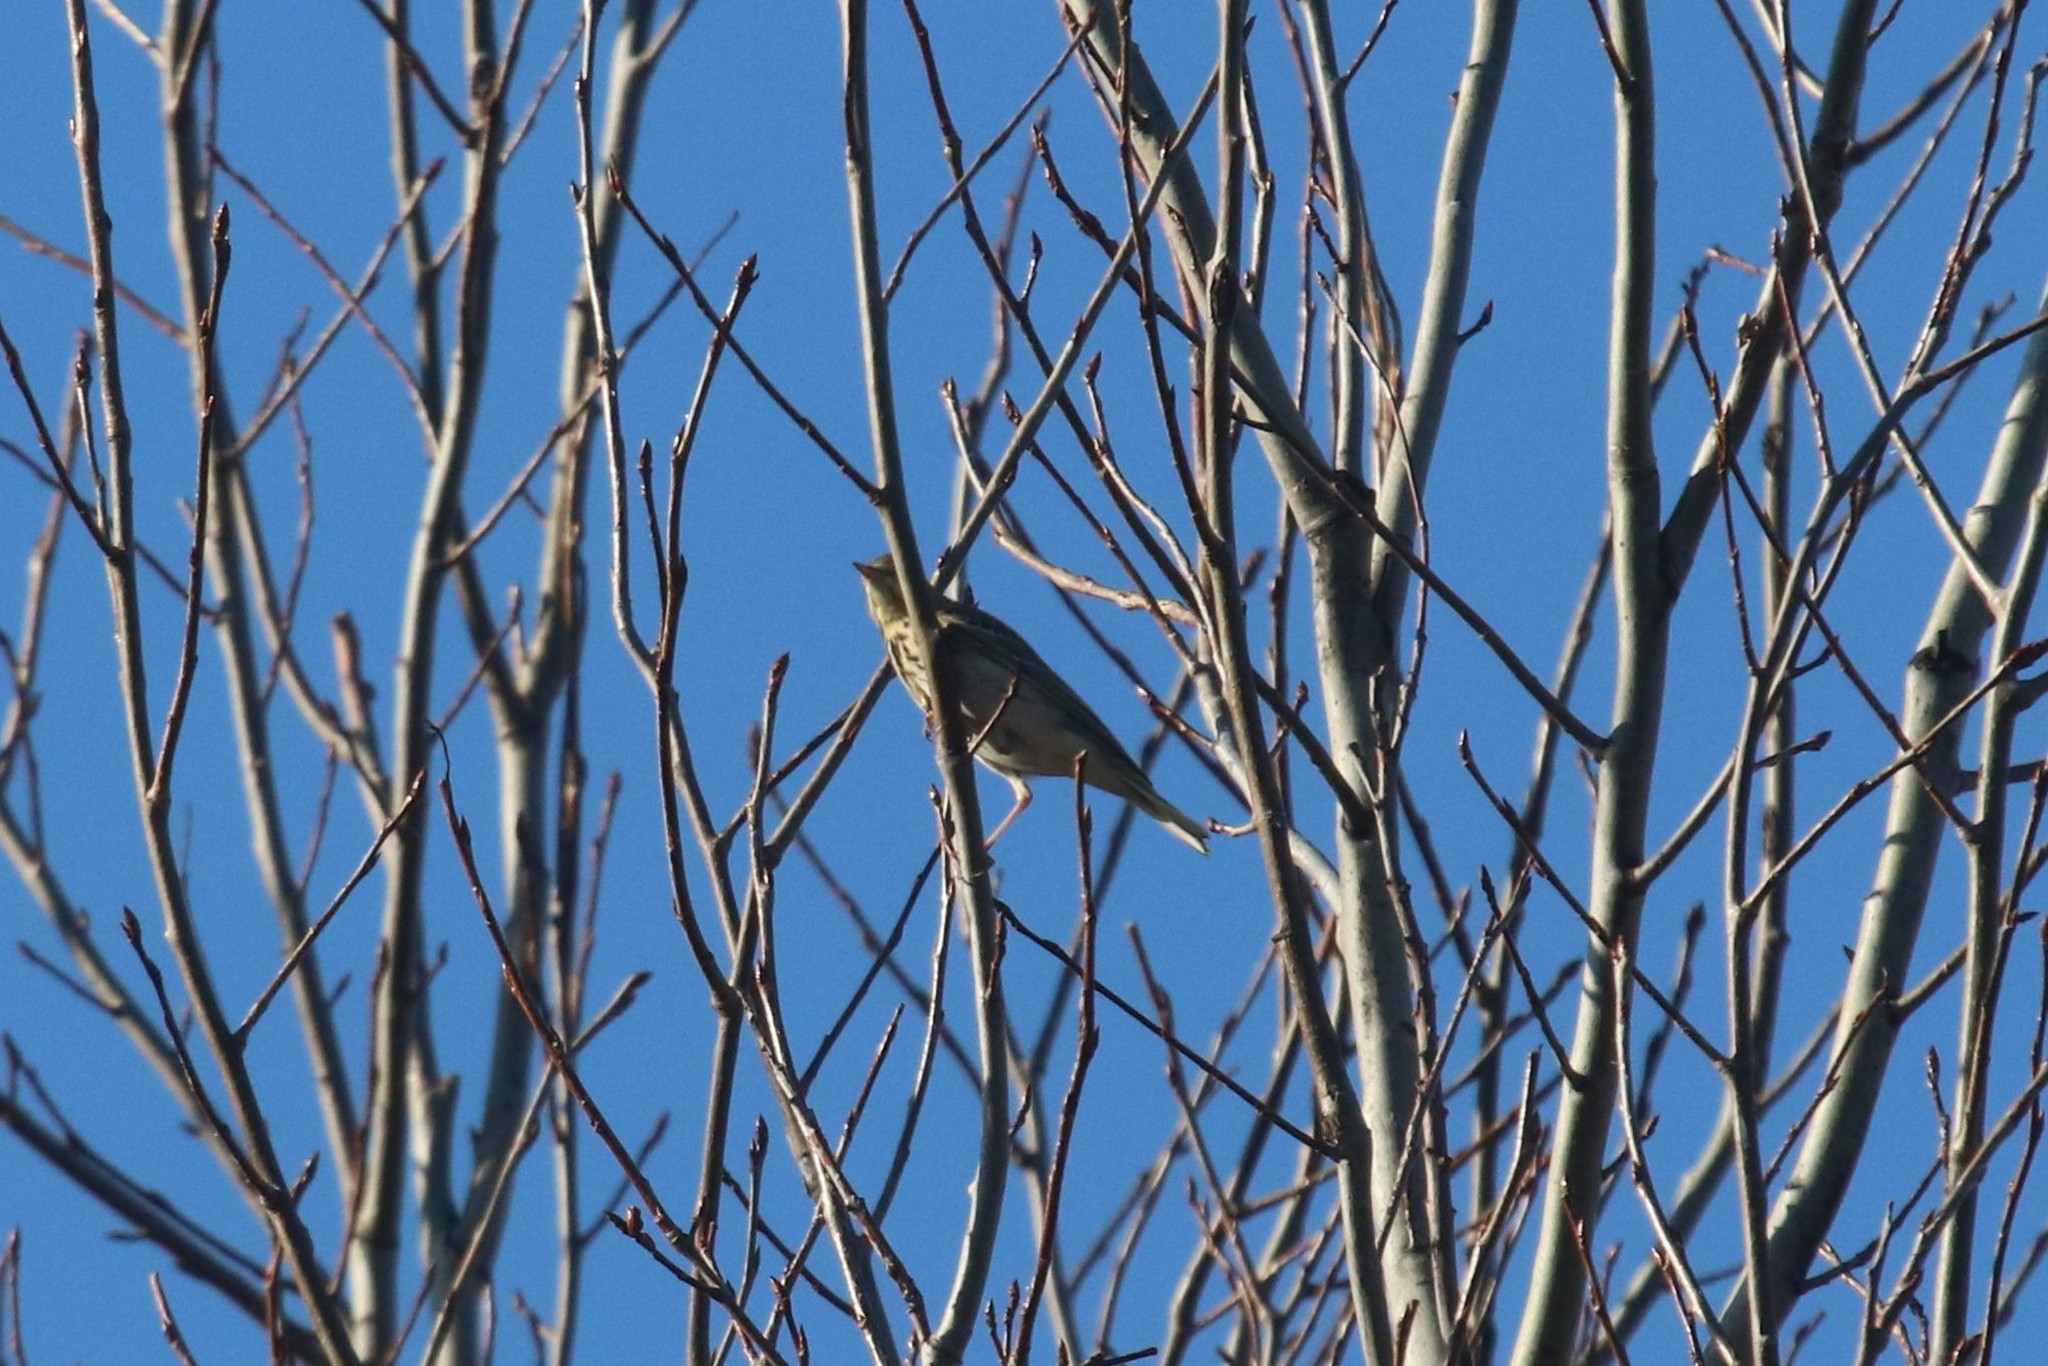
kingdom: Animalia
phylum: Chordata
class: Aves
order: Passeriformes
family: Motacillidae
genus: Anthus
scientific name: Anthus trivialis
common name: Tree pipit
